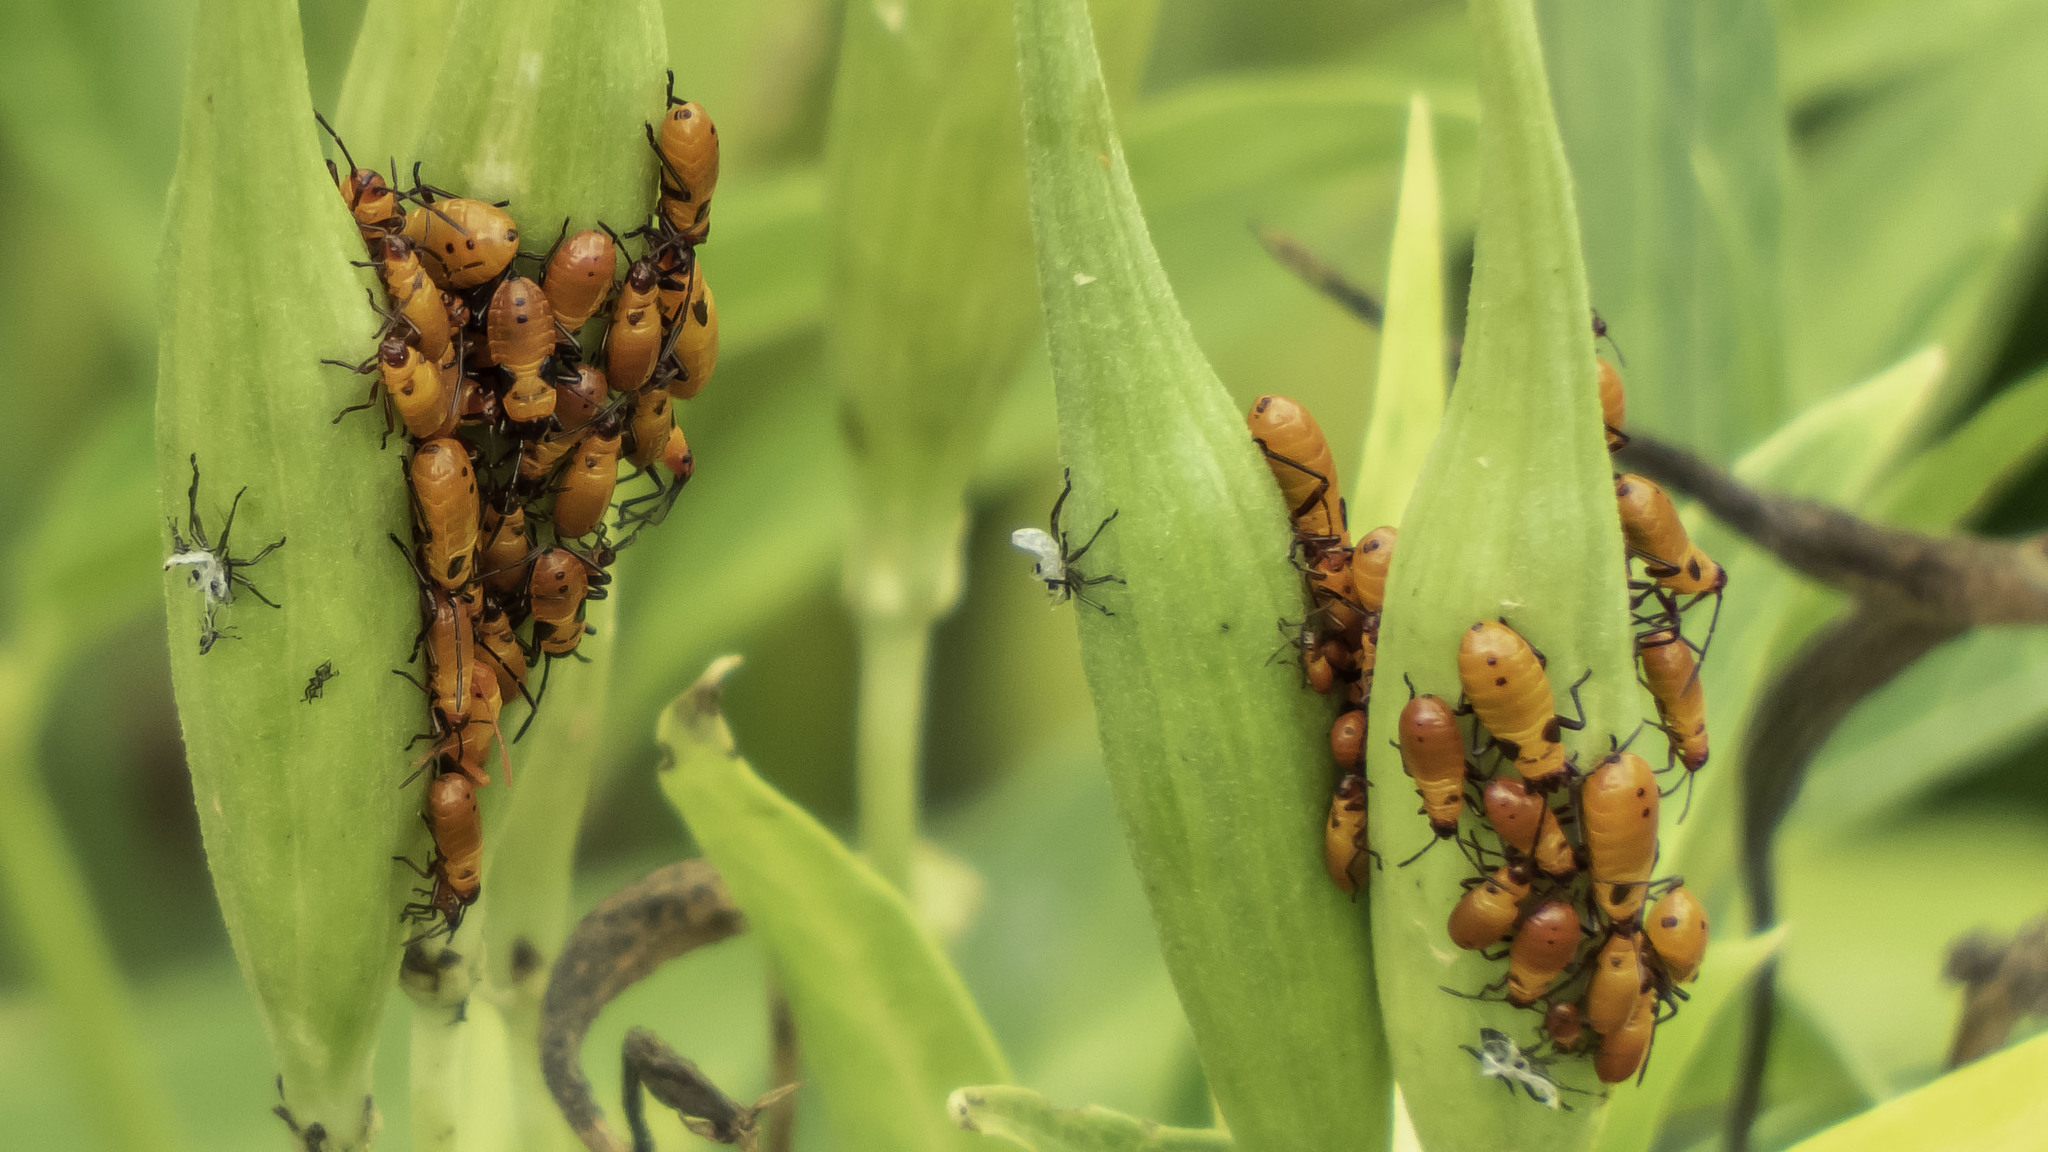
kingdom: Animalia
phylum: Arthropoda
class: Insecta
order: Hemiptera
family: Lygaeidae
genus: Oncopeltus
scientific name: Oncopeltus fasciatus
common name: Large milkweed bug
